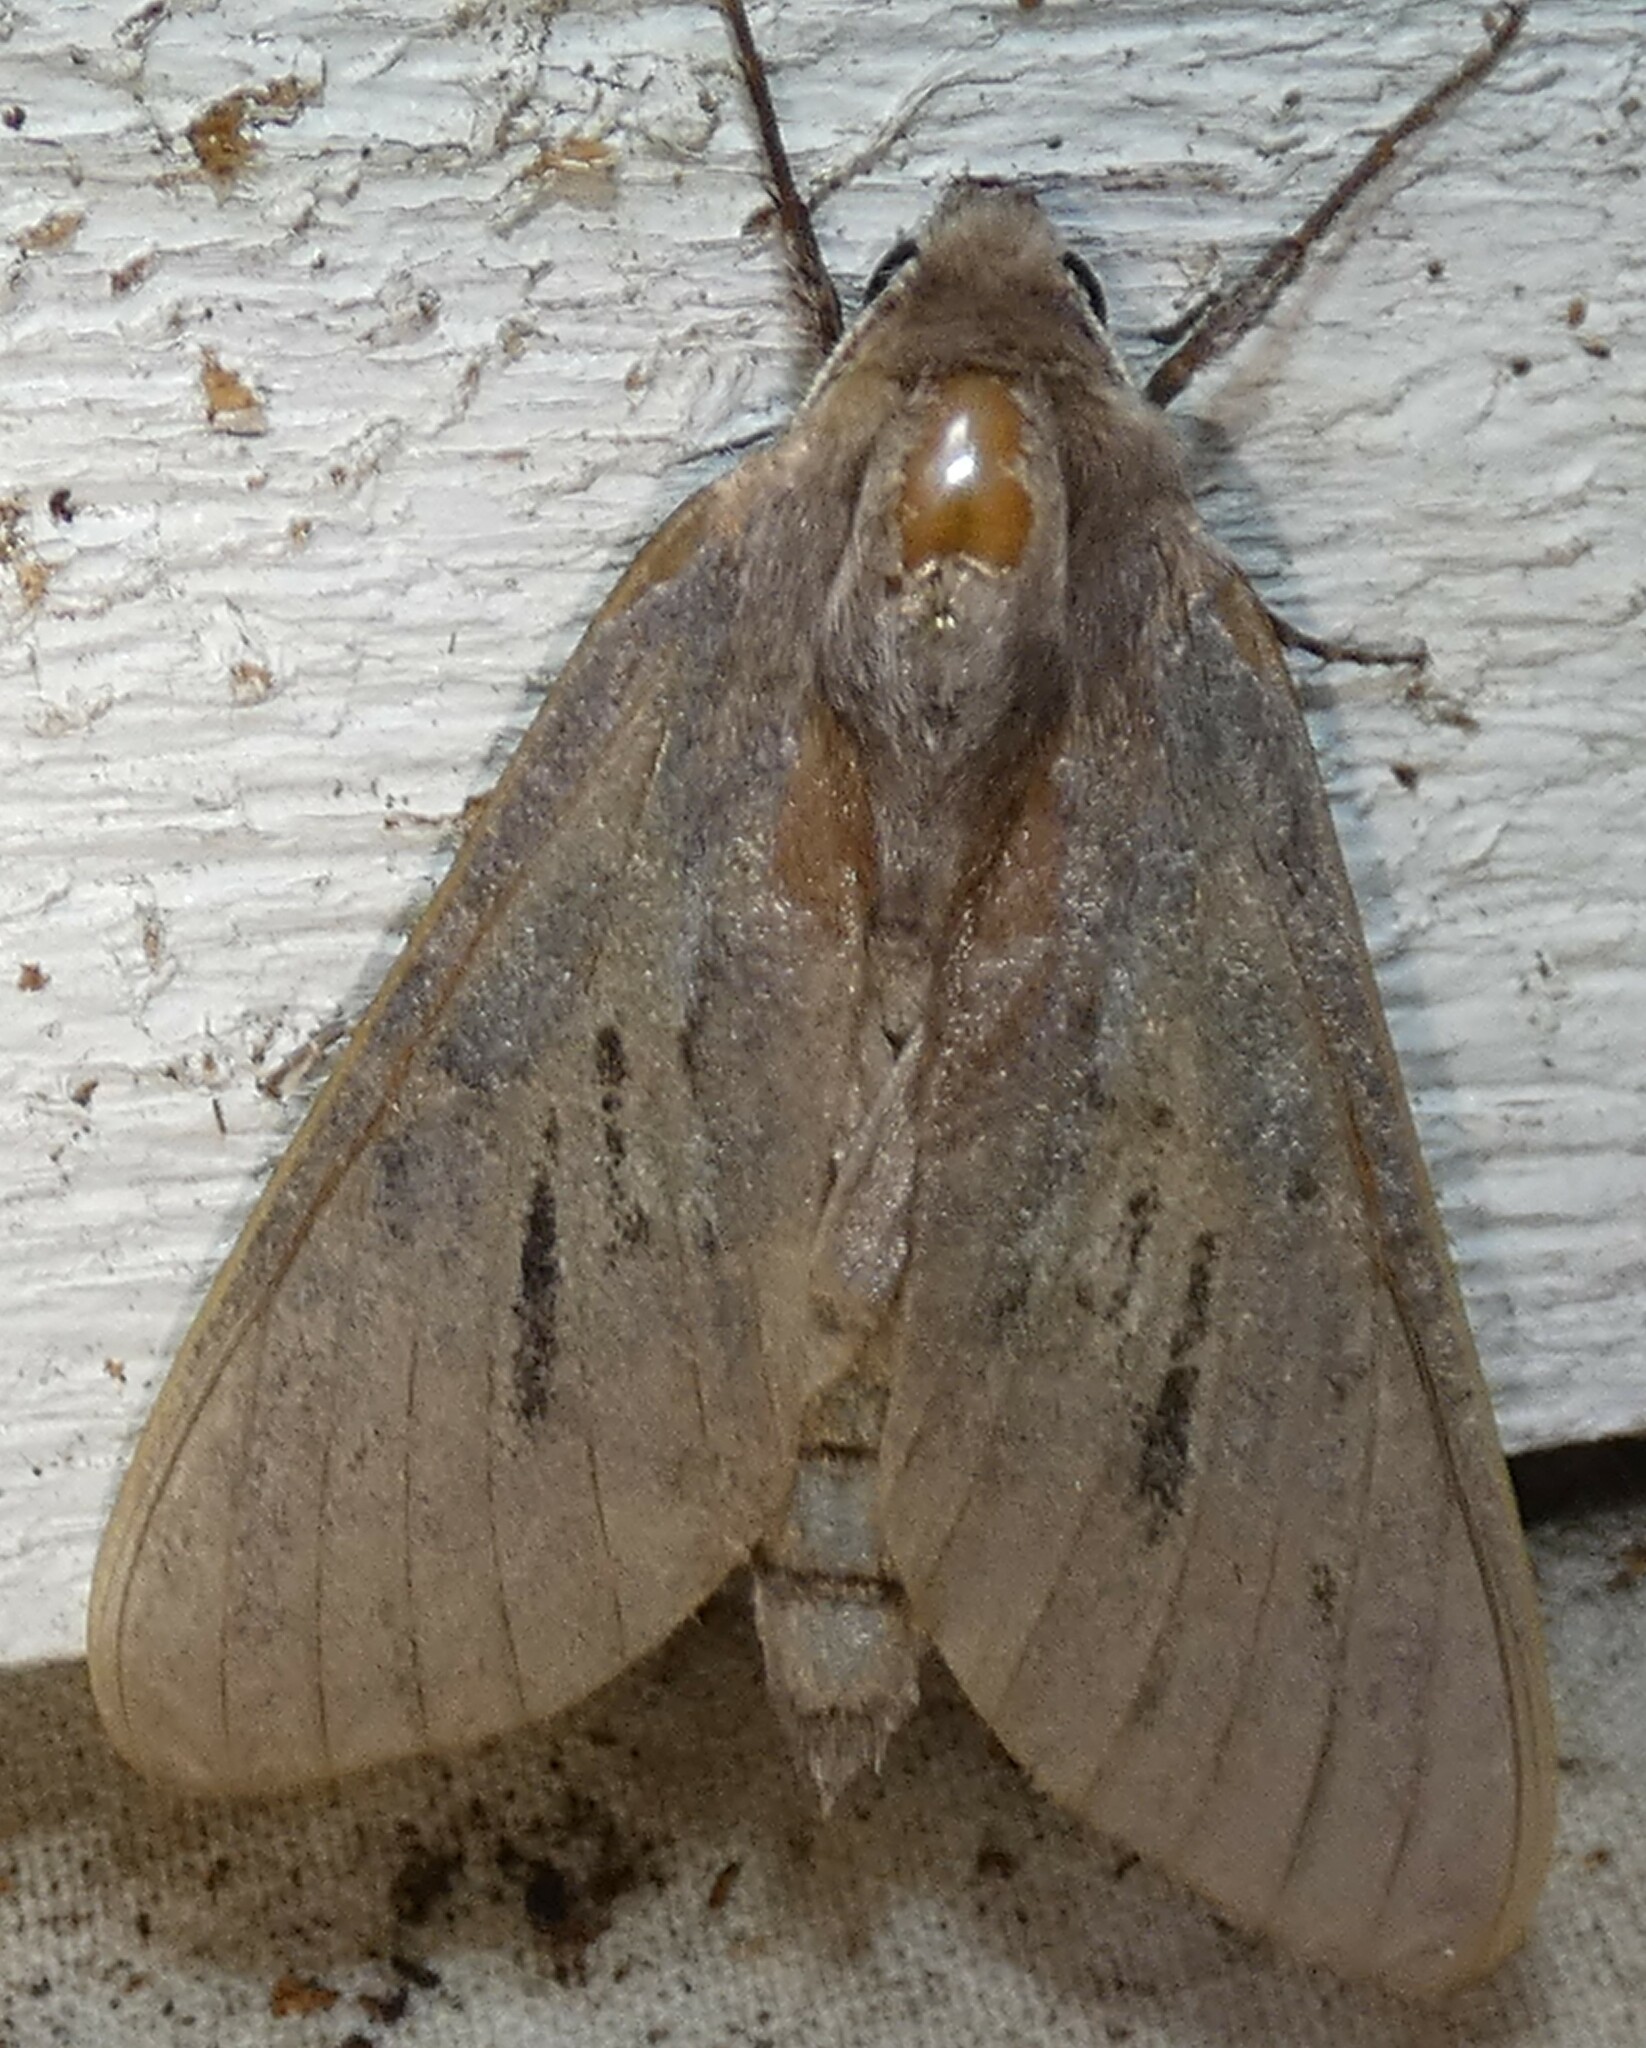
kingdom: Animalia
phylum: Arthropoda
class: Insecta
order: Lepidoptera
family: Sphingidae
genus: Lapara
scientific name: Lapara coniferarum
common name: Southern pine sphinx
